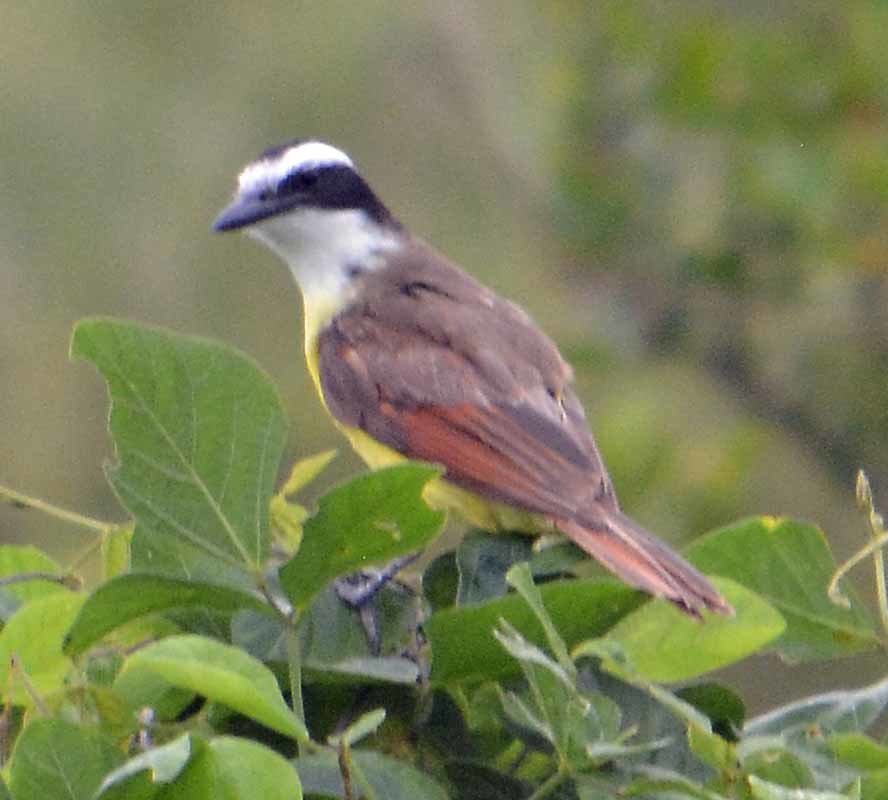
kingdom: Animalia
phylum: Chordata
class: Aves
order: Passeriformes
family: Tyrannidae
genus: Pitangus
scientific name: Pitangus sulphuratus
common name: Great kiskadee
